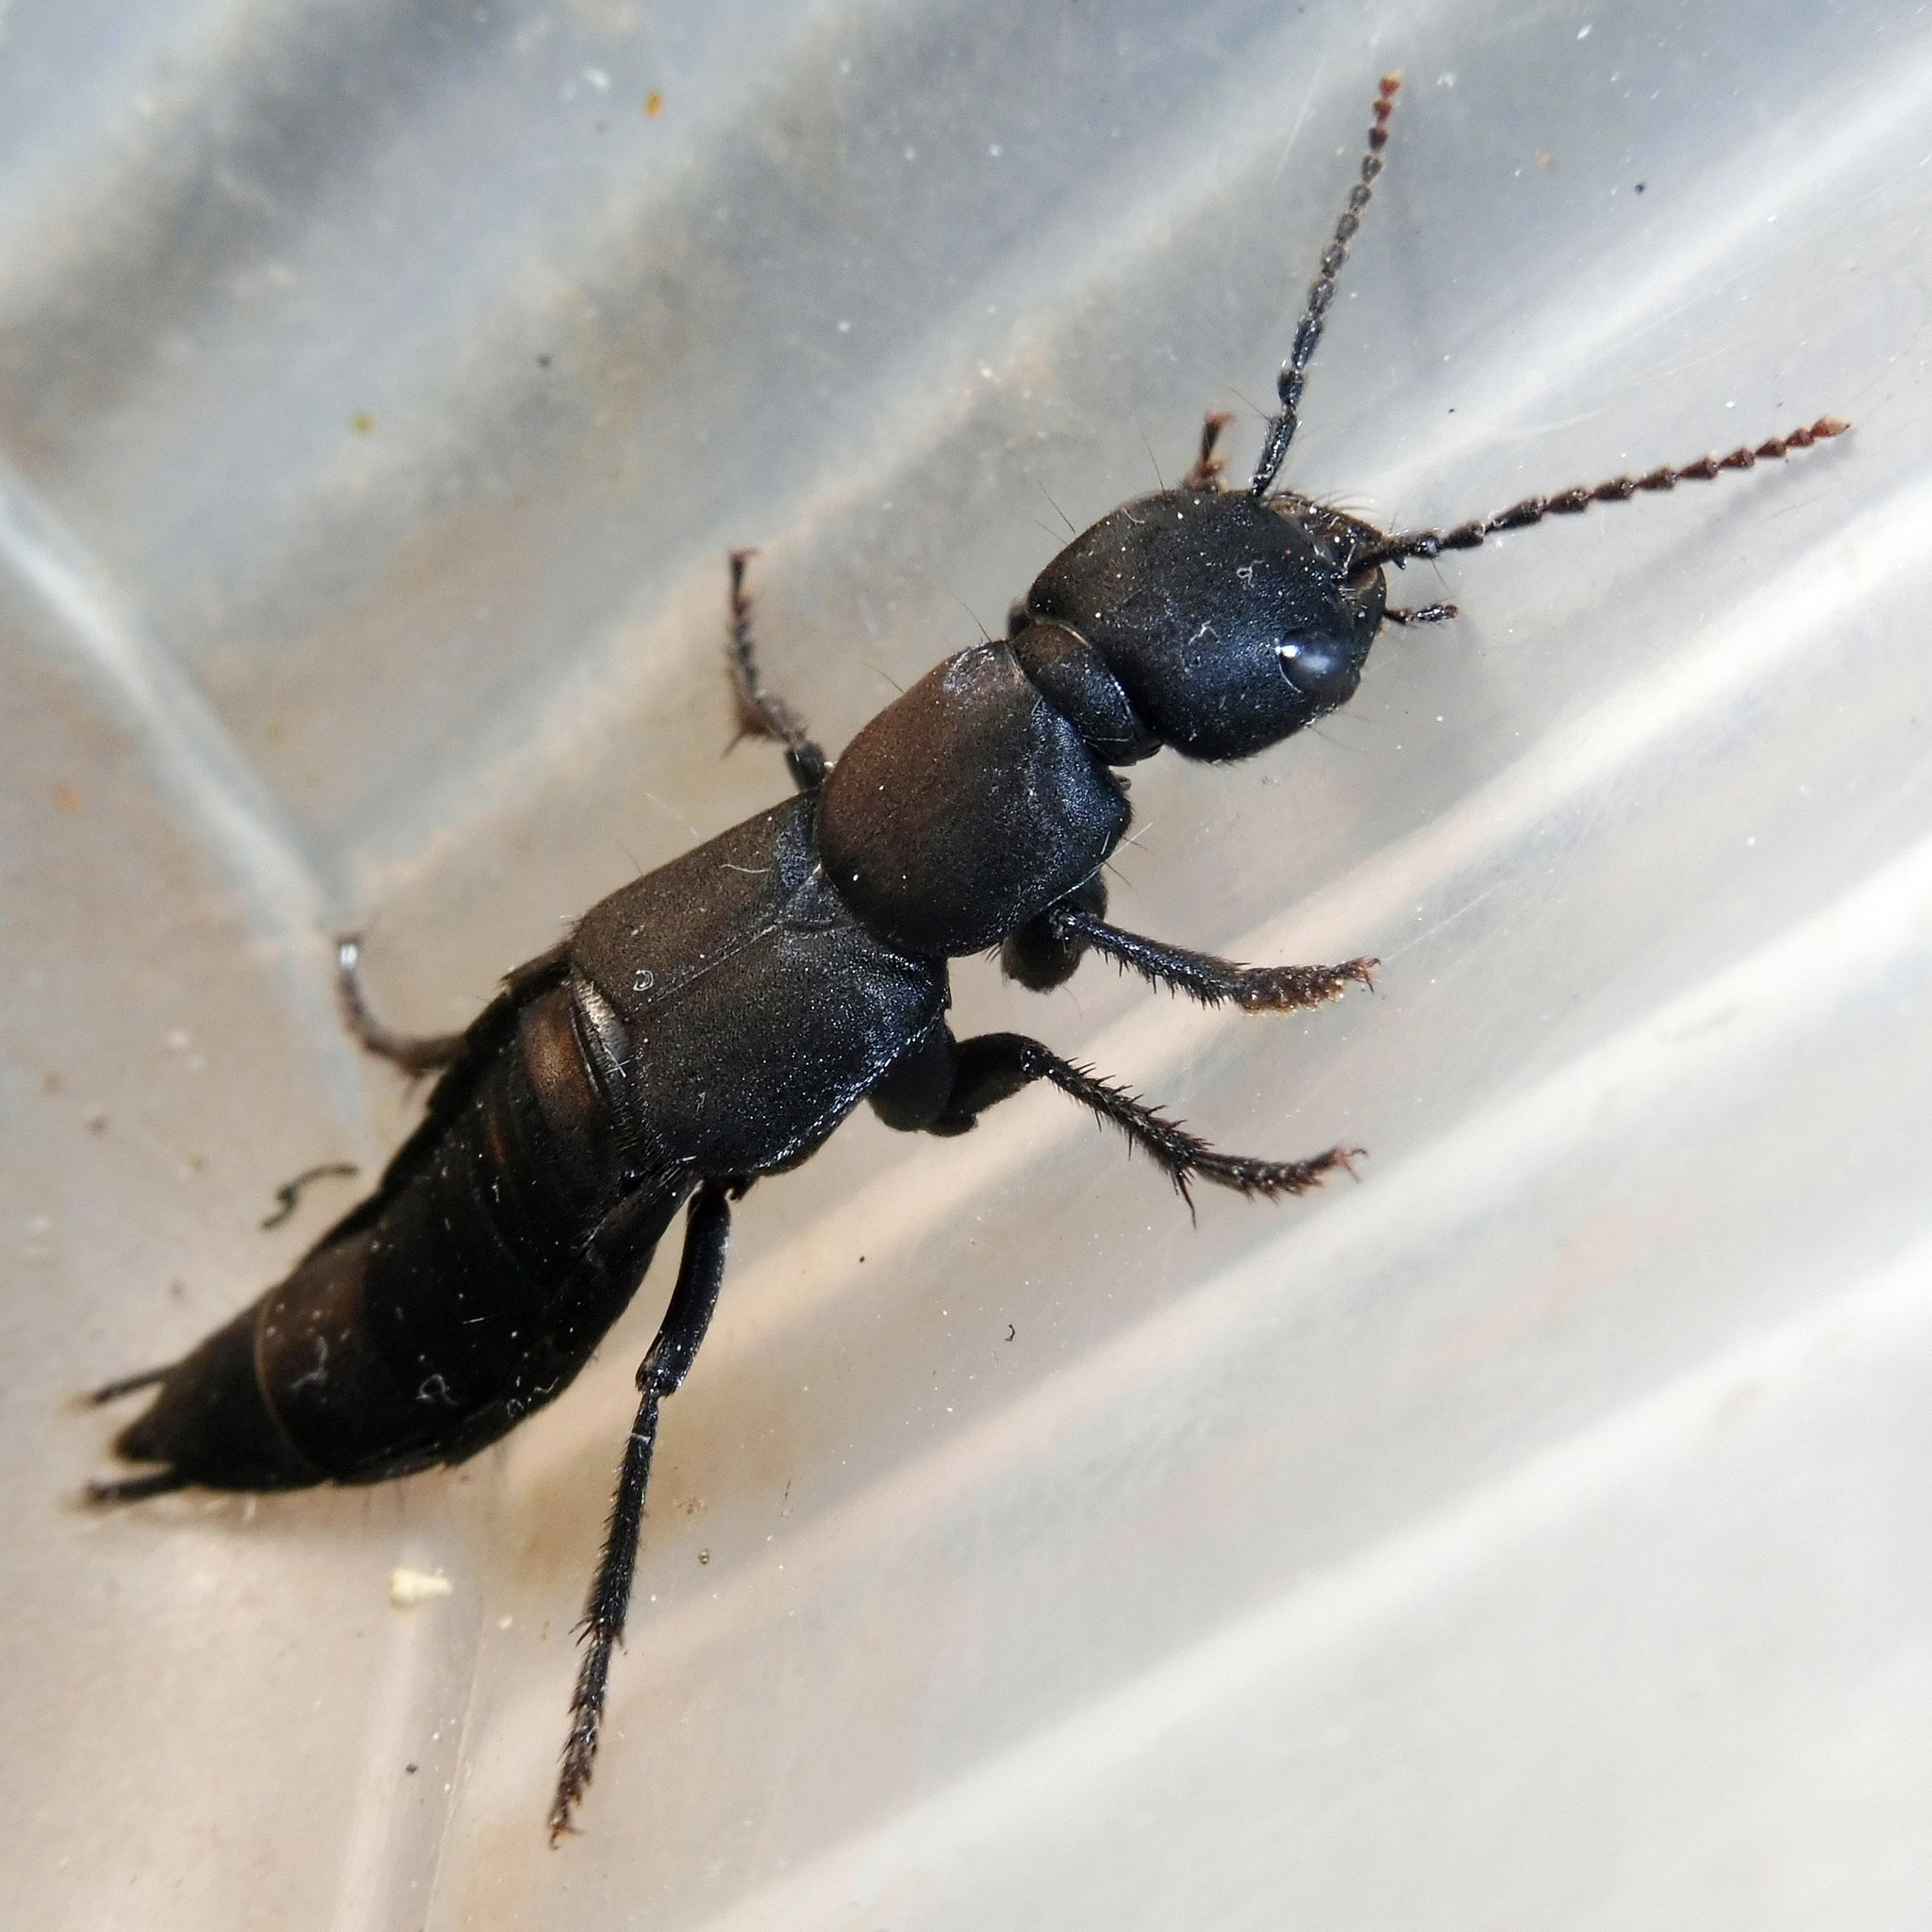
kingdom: Animalia
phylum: Arthropoda
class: Insecta
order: Coleoptera
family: Staphylinidae
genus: Ocypus
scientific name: Ocypus olens
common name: Devil's coach-horse
